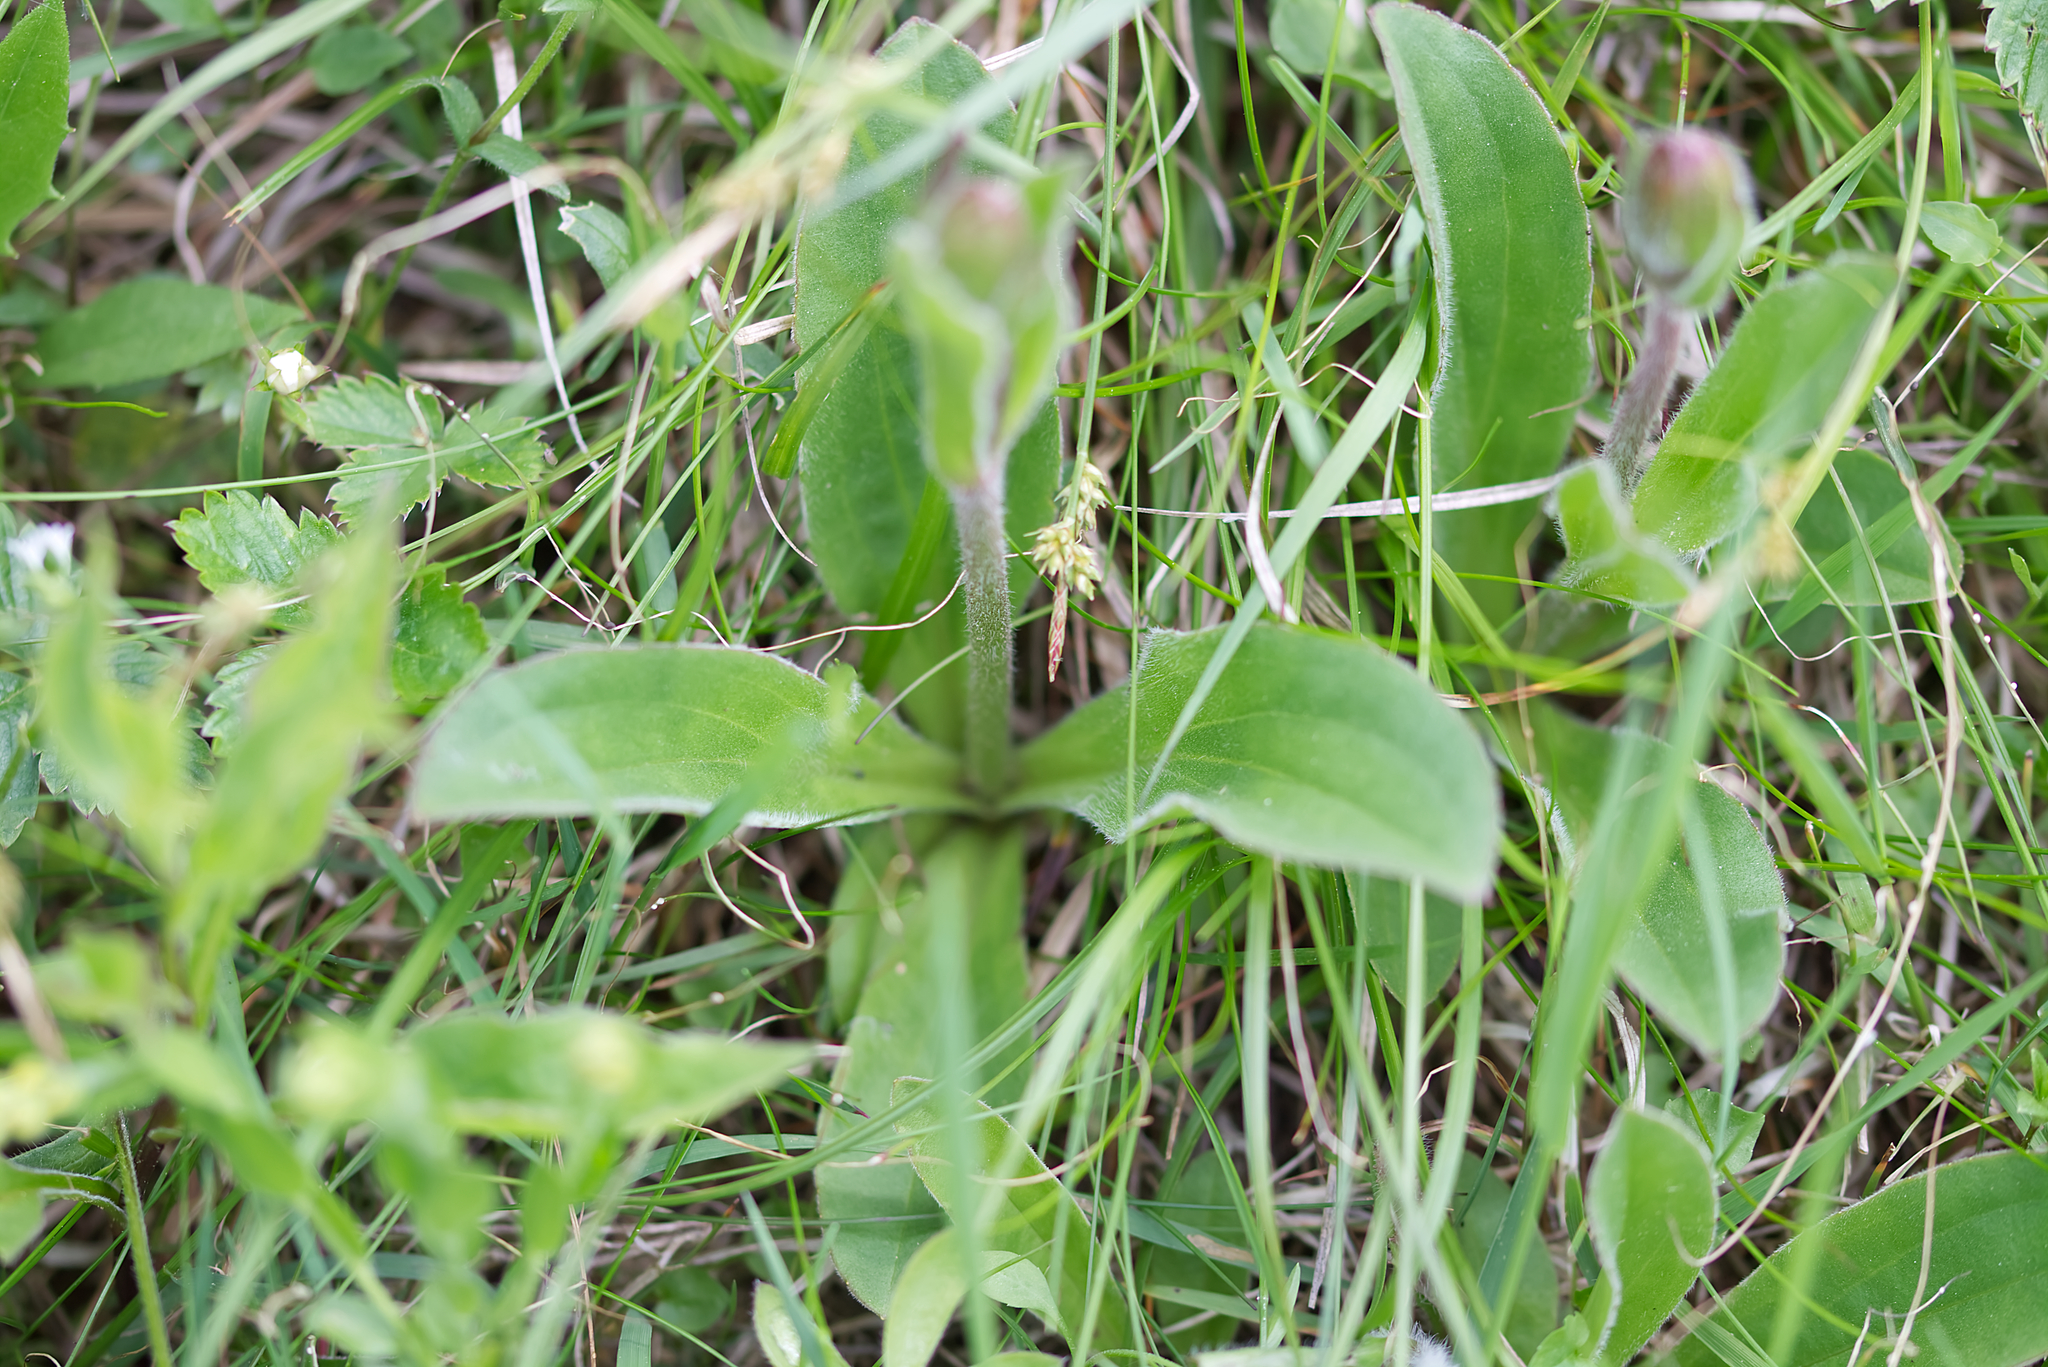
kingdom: Plantae
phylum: Tracheophyta
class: Magnoliopsida
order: Asterales
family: Asteraceae
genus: Arnica
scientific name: Arnica montana
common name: Leopard's bane
